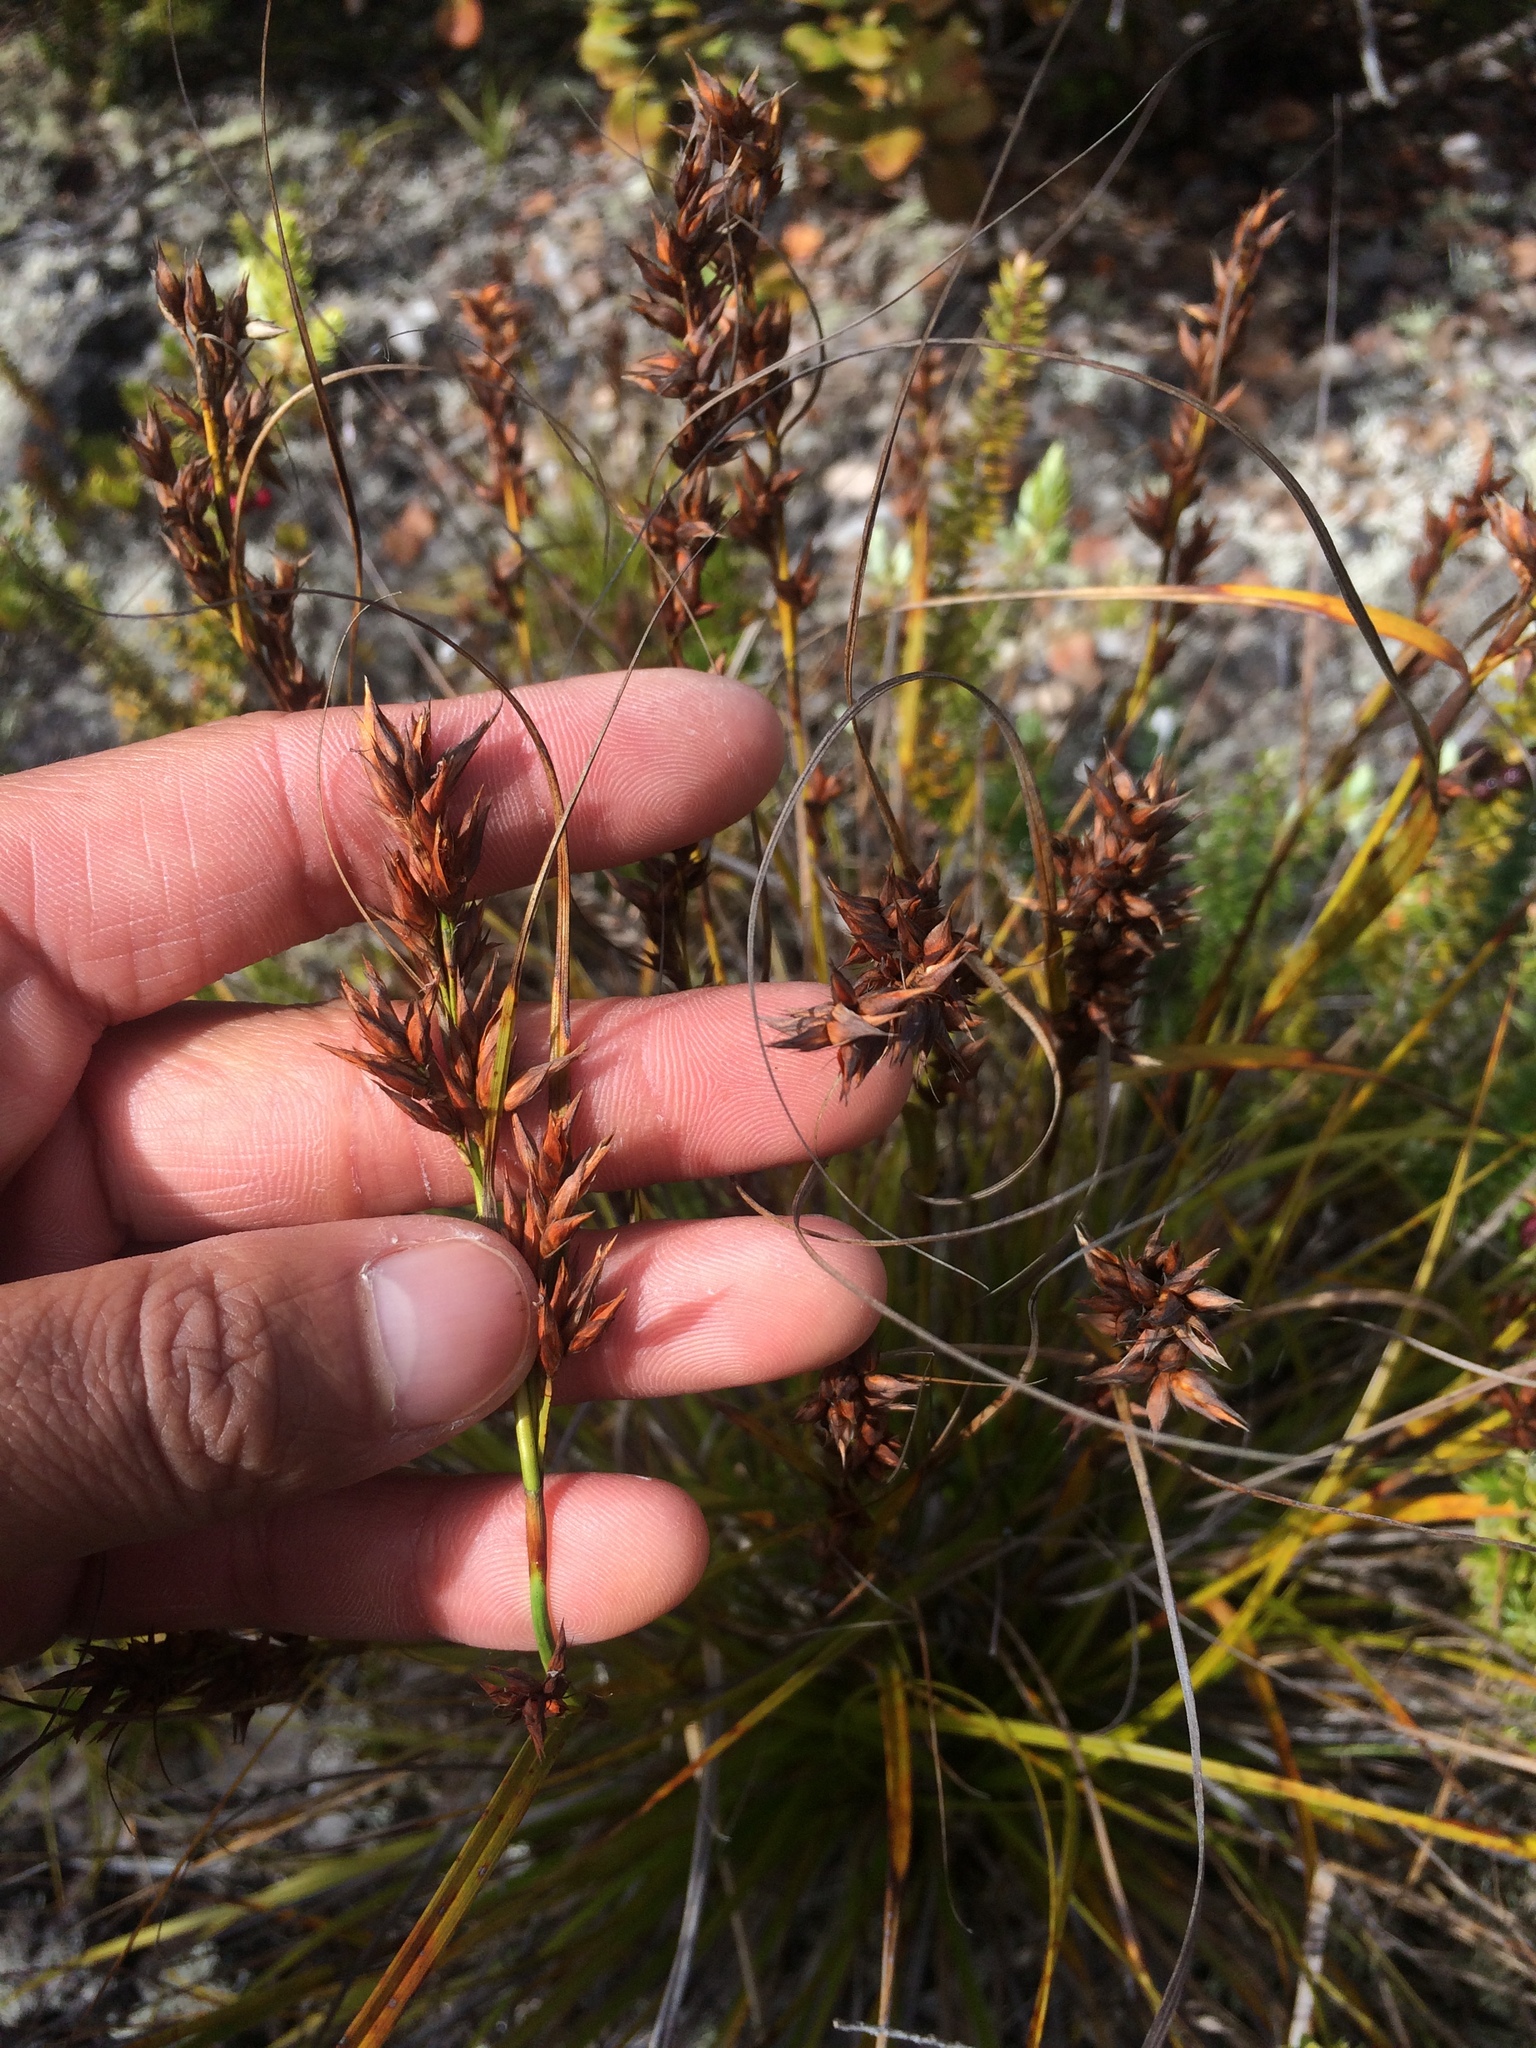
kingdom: Plantae
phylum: Tracheophyta
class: Liliopsida
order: Poales
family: Cyperaceae
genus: Morelotia
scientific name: Morelotia gahniiformis
